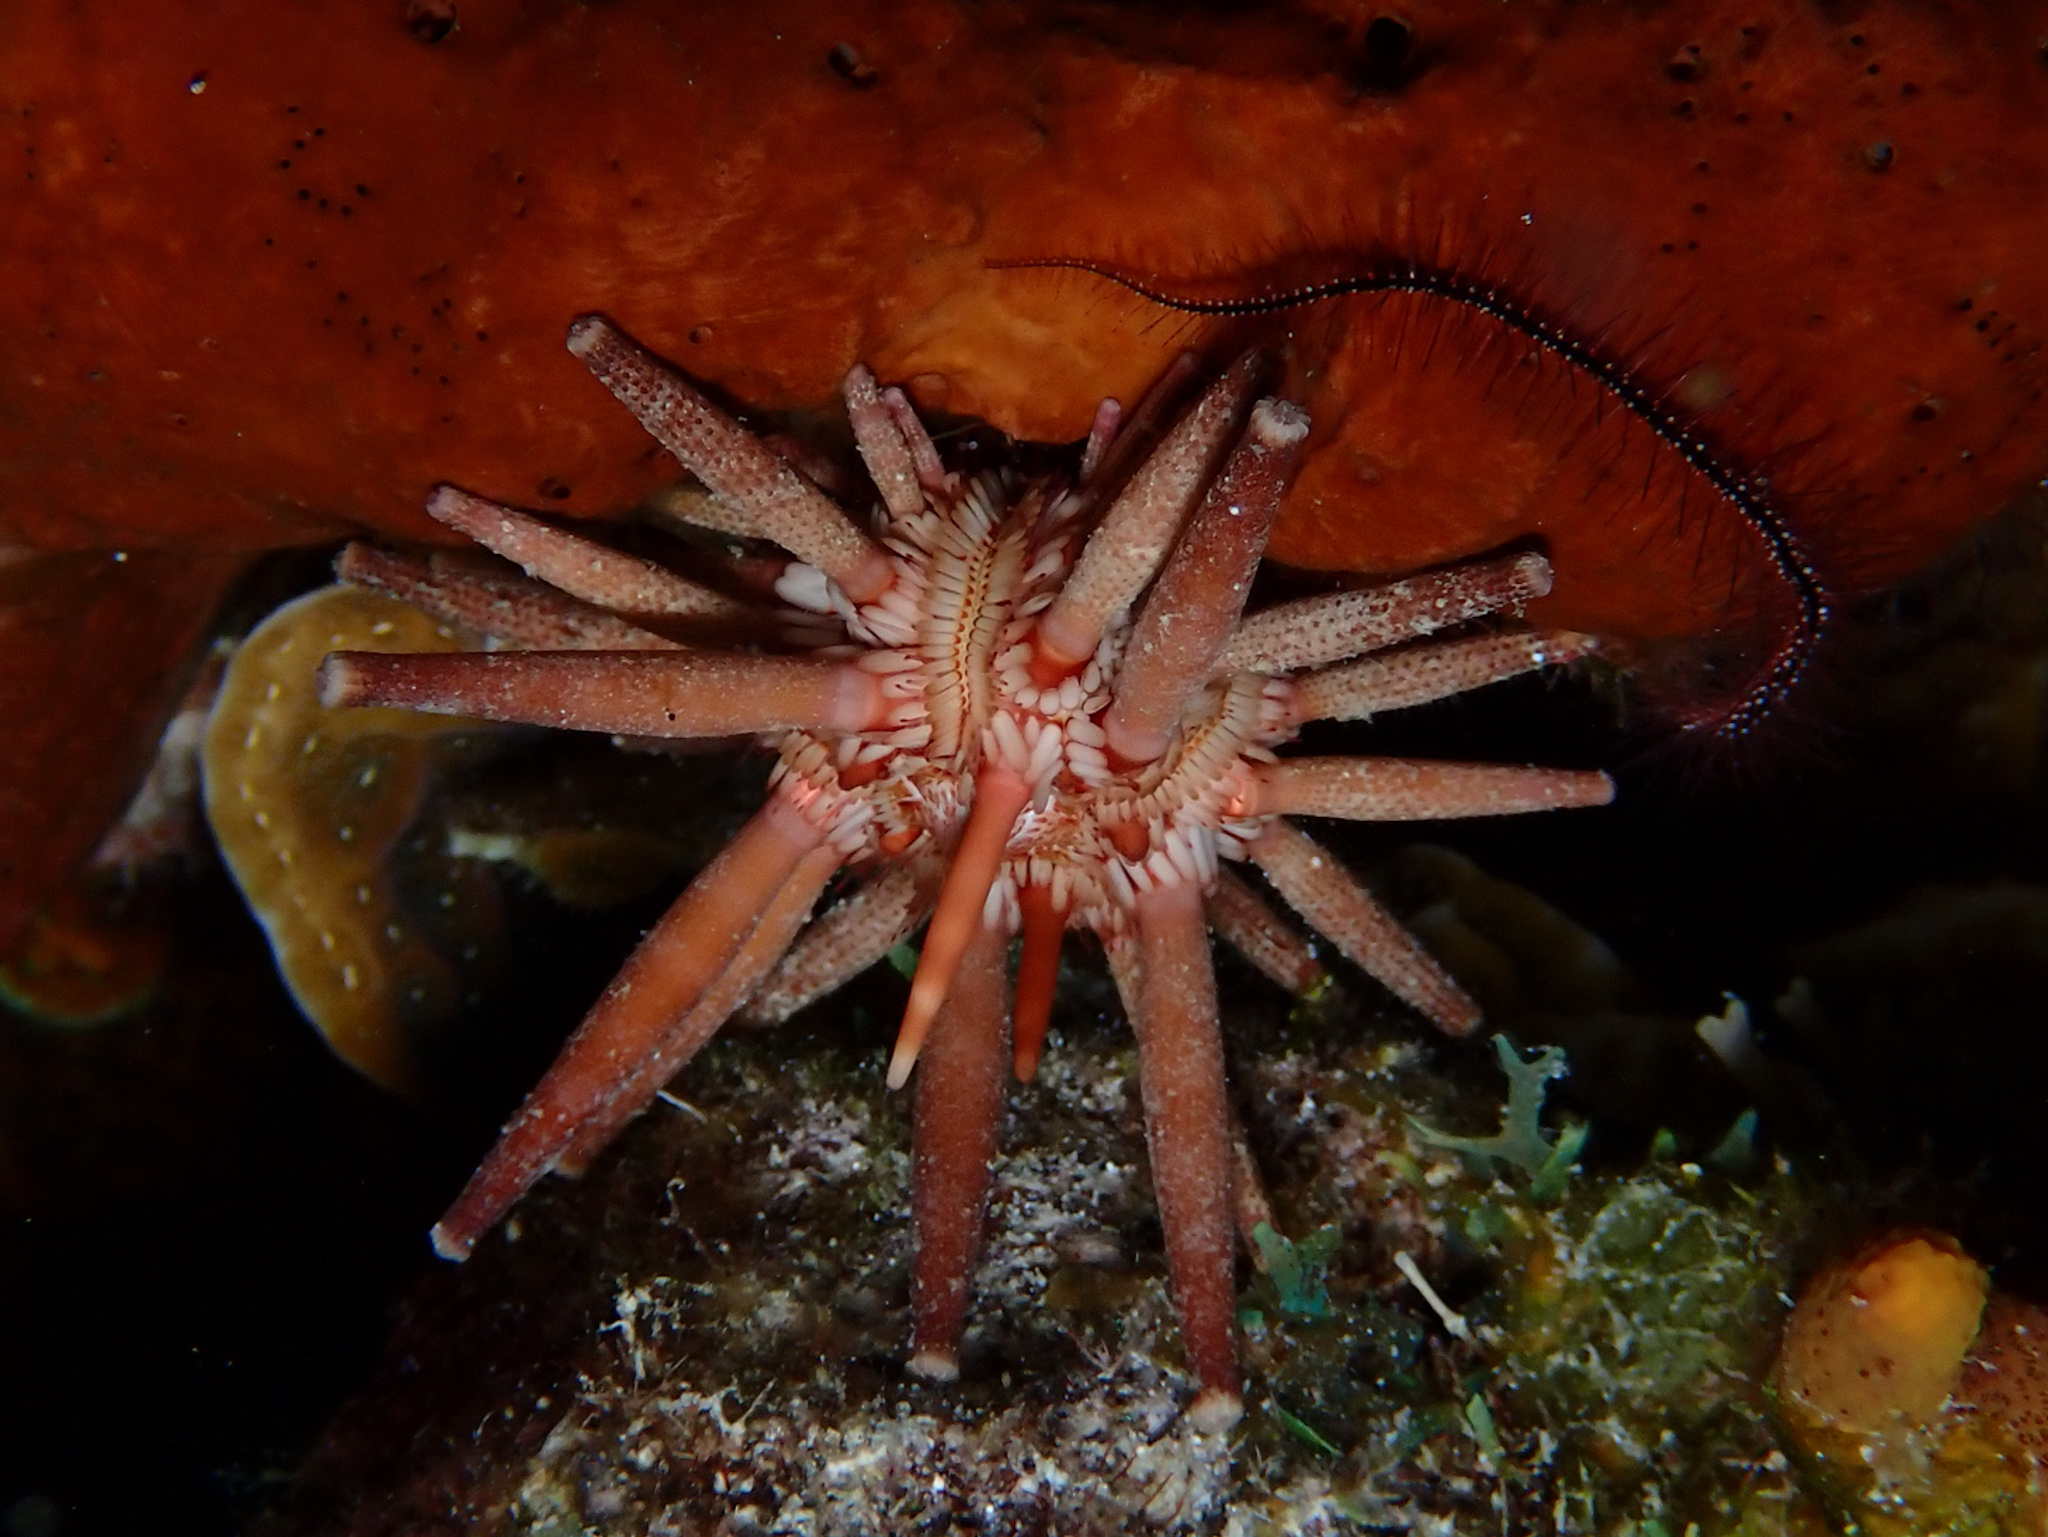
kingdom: Animalia
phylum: Echinodermata
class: Echinoidea
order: Cidaroida
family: Cidaridae
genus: Eucidaris
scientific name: Eucidaris tribuloides
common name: Slate pencil urchin
